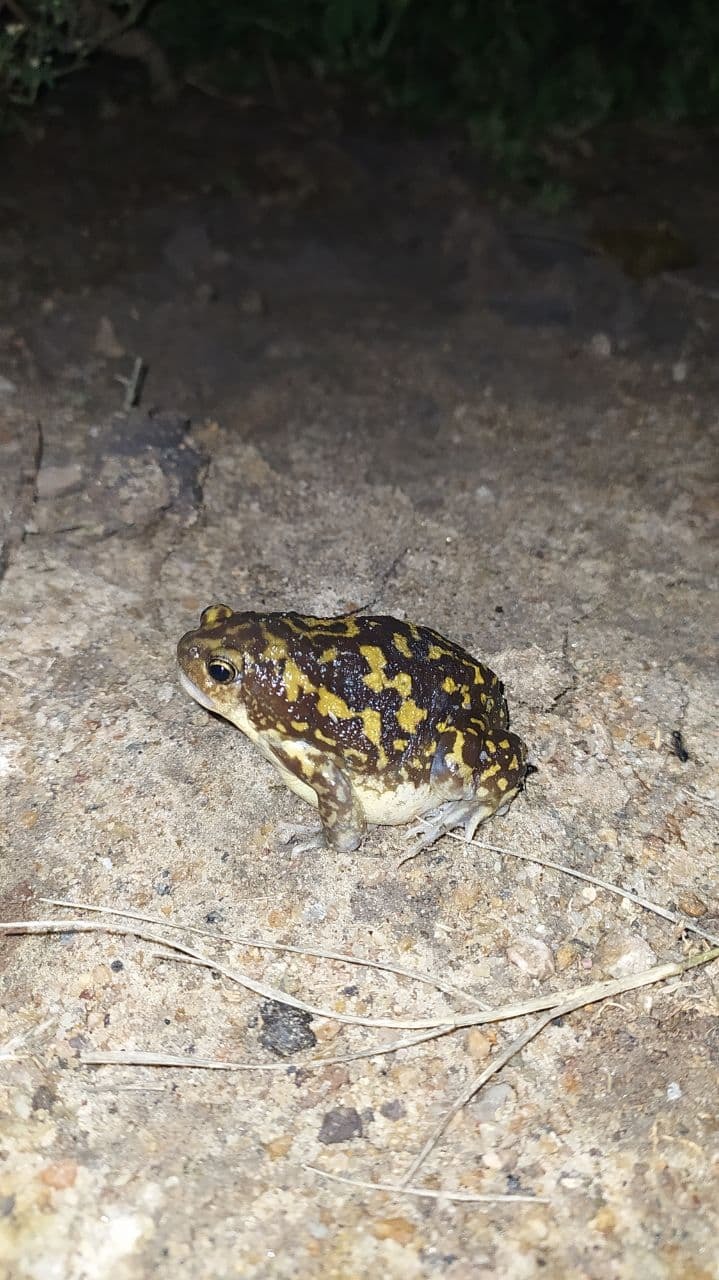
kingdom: Animalia
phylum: Chordata
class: Amphibia
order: Anura
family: Microhylidae
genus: Uperodon
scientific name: Uperodon systoma
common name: Balloon frog
